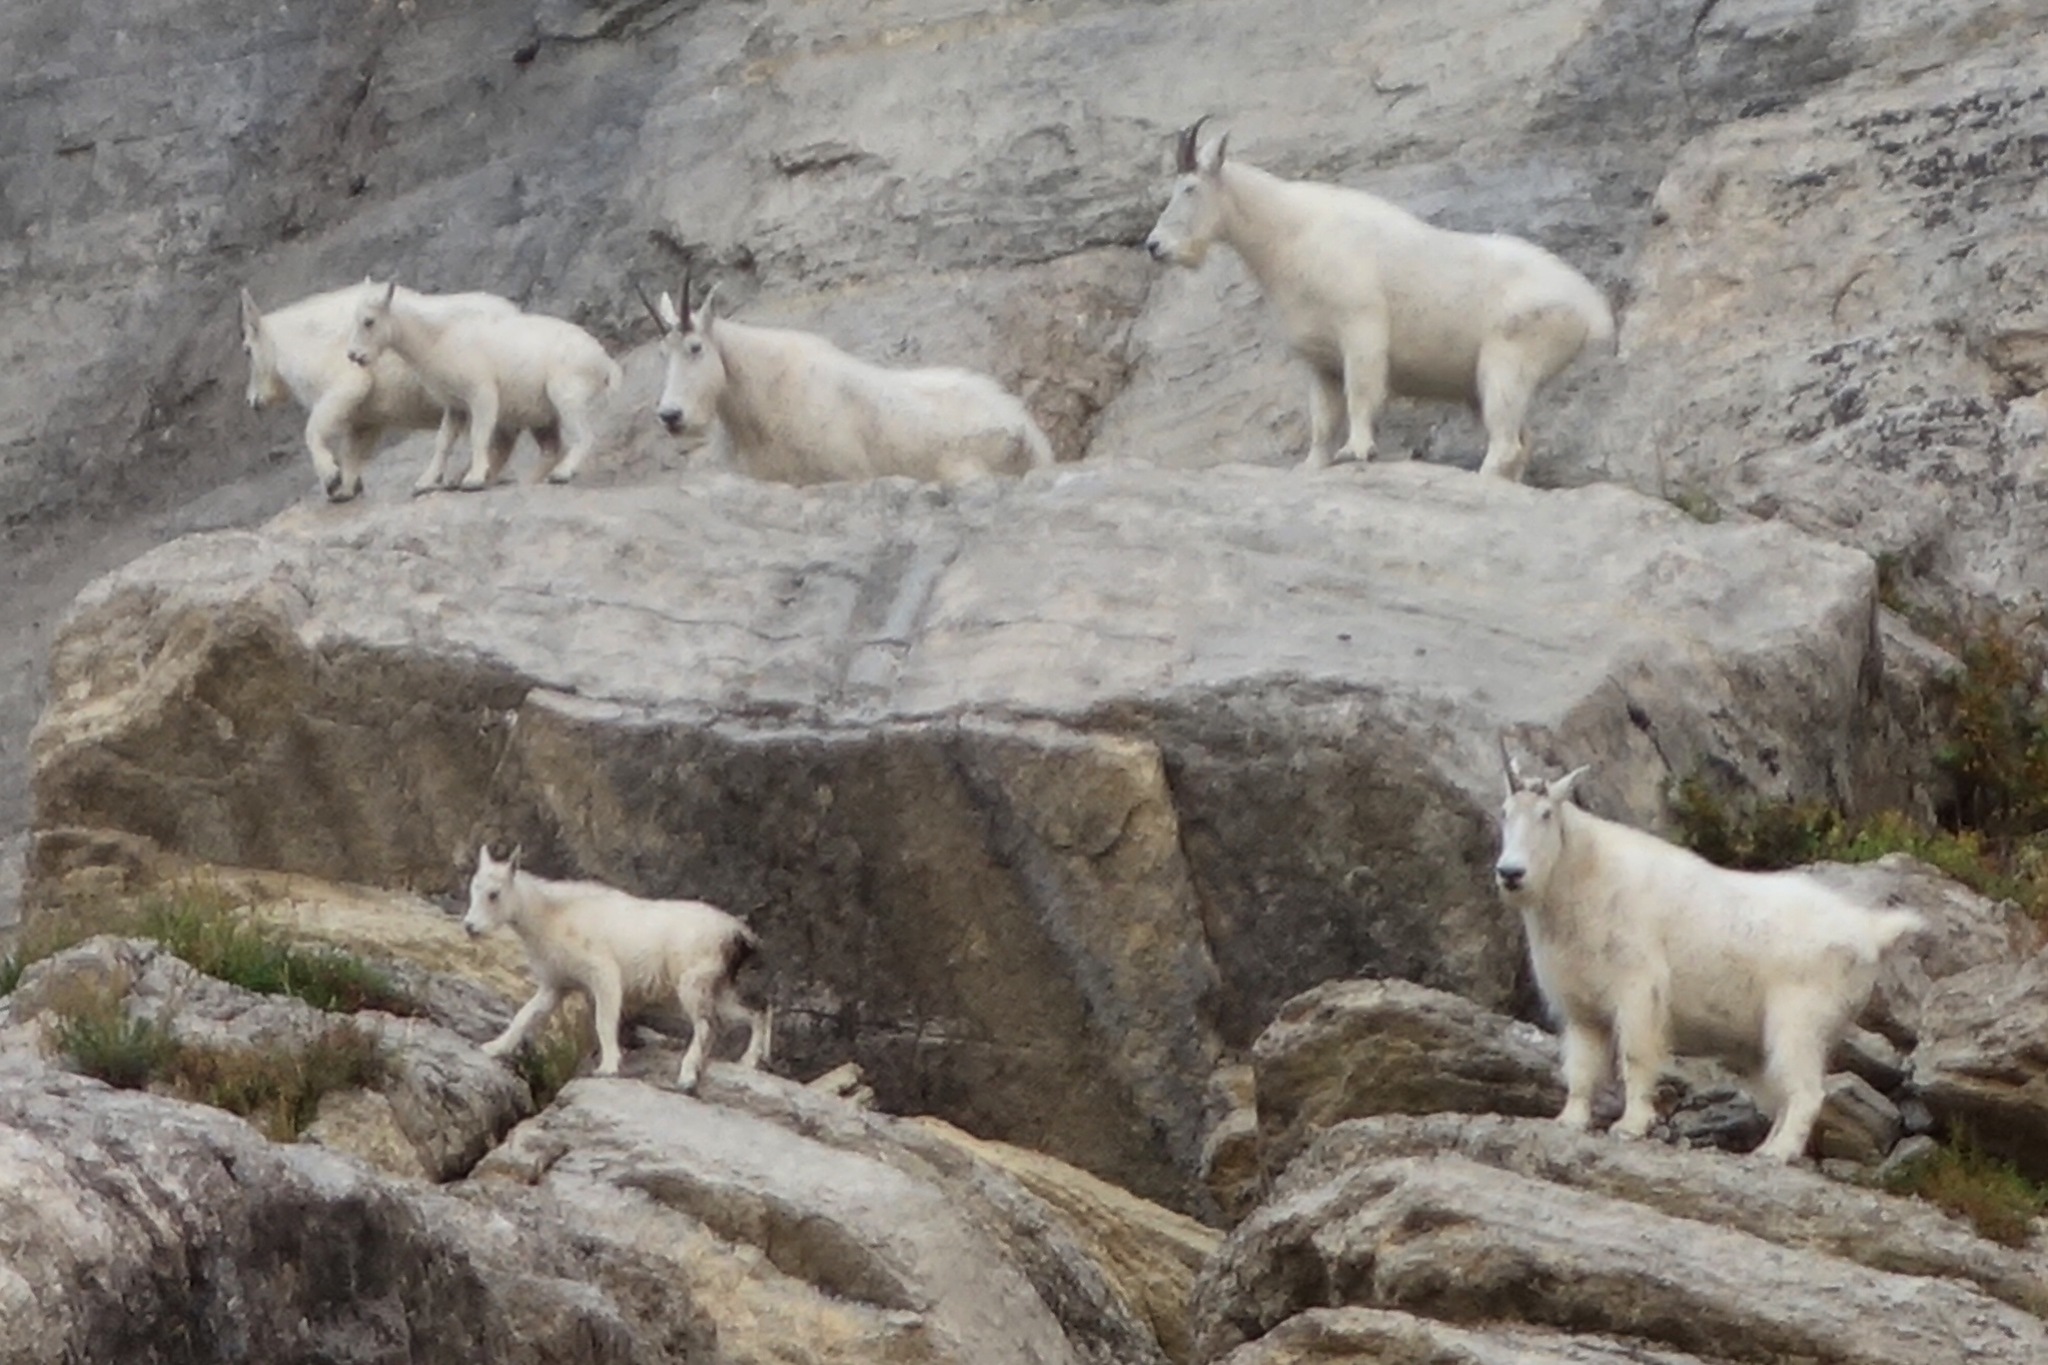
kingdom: Animalia
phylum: Chordata
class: Mammalia
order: Artiodactyla
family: Bovidae
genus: Oreamnos
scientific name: Oreamnos americanus
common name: Mountain goat
